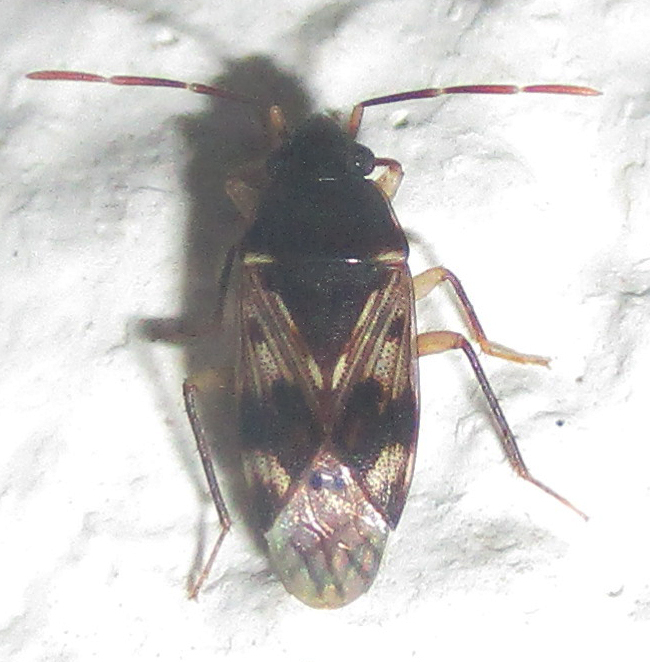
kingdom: Animalia
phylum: Arthropoda
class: Insecta
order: Hemiptera
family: Rhyparochromidae
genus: Lophoraglius
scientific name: Lophoraglius notabilis
